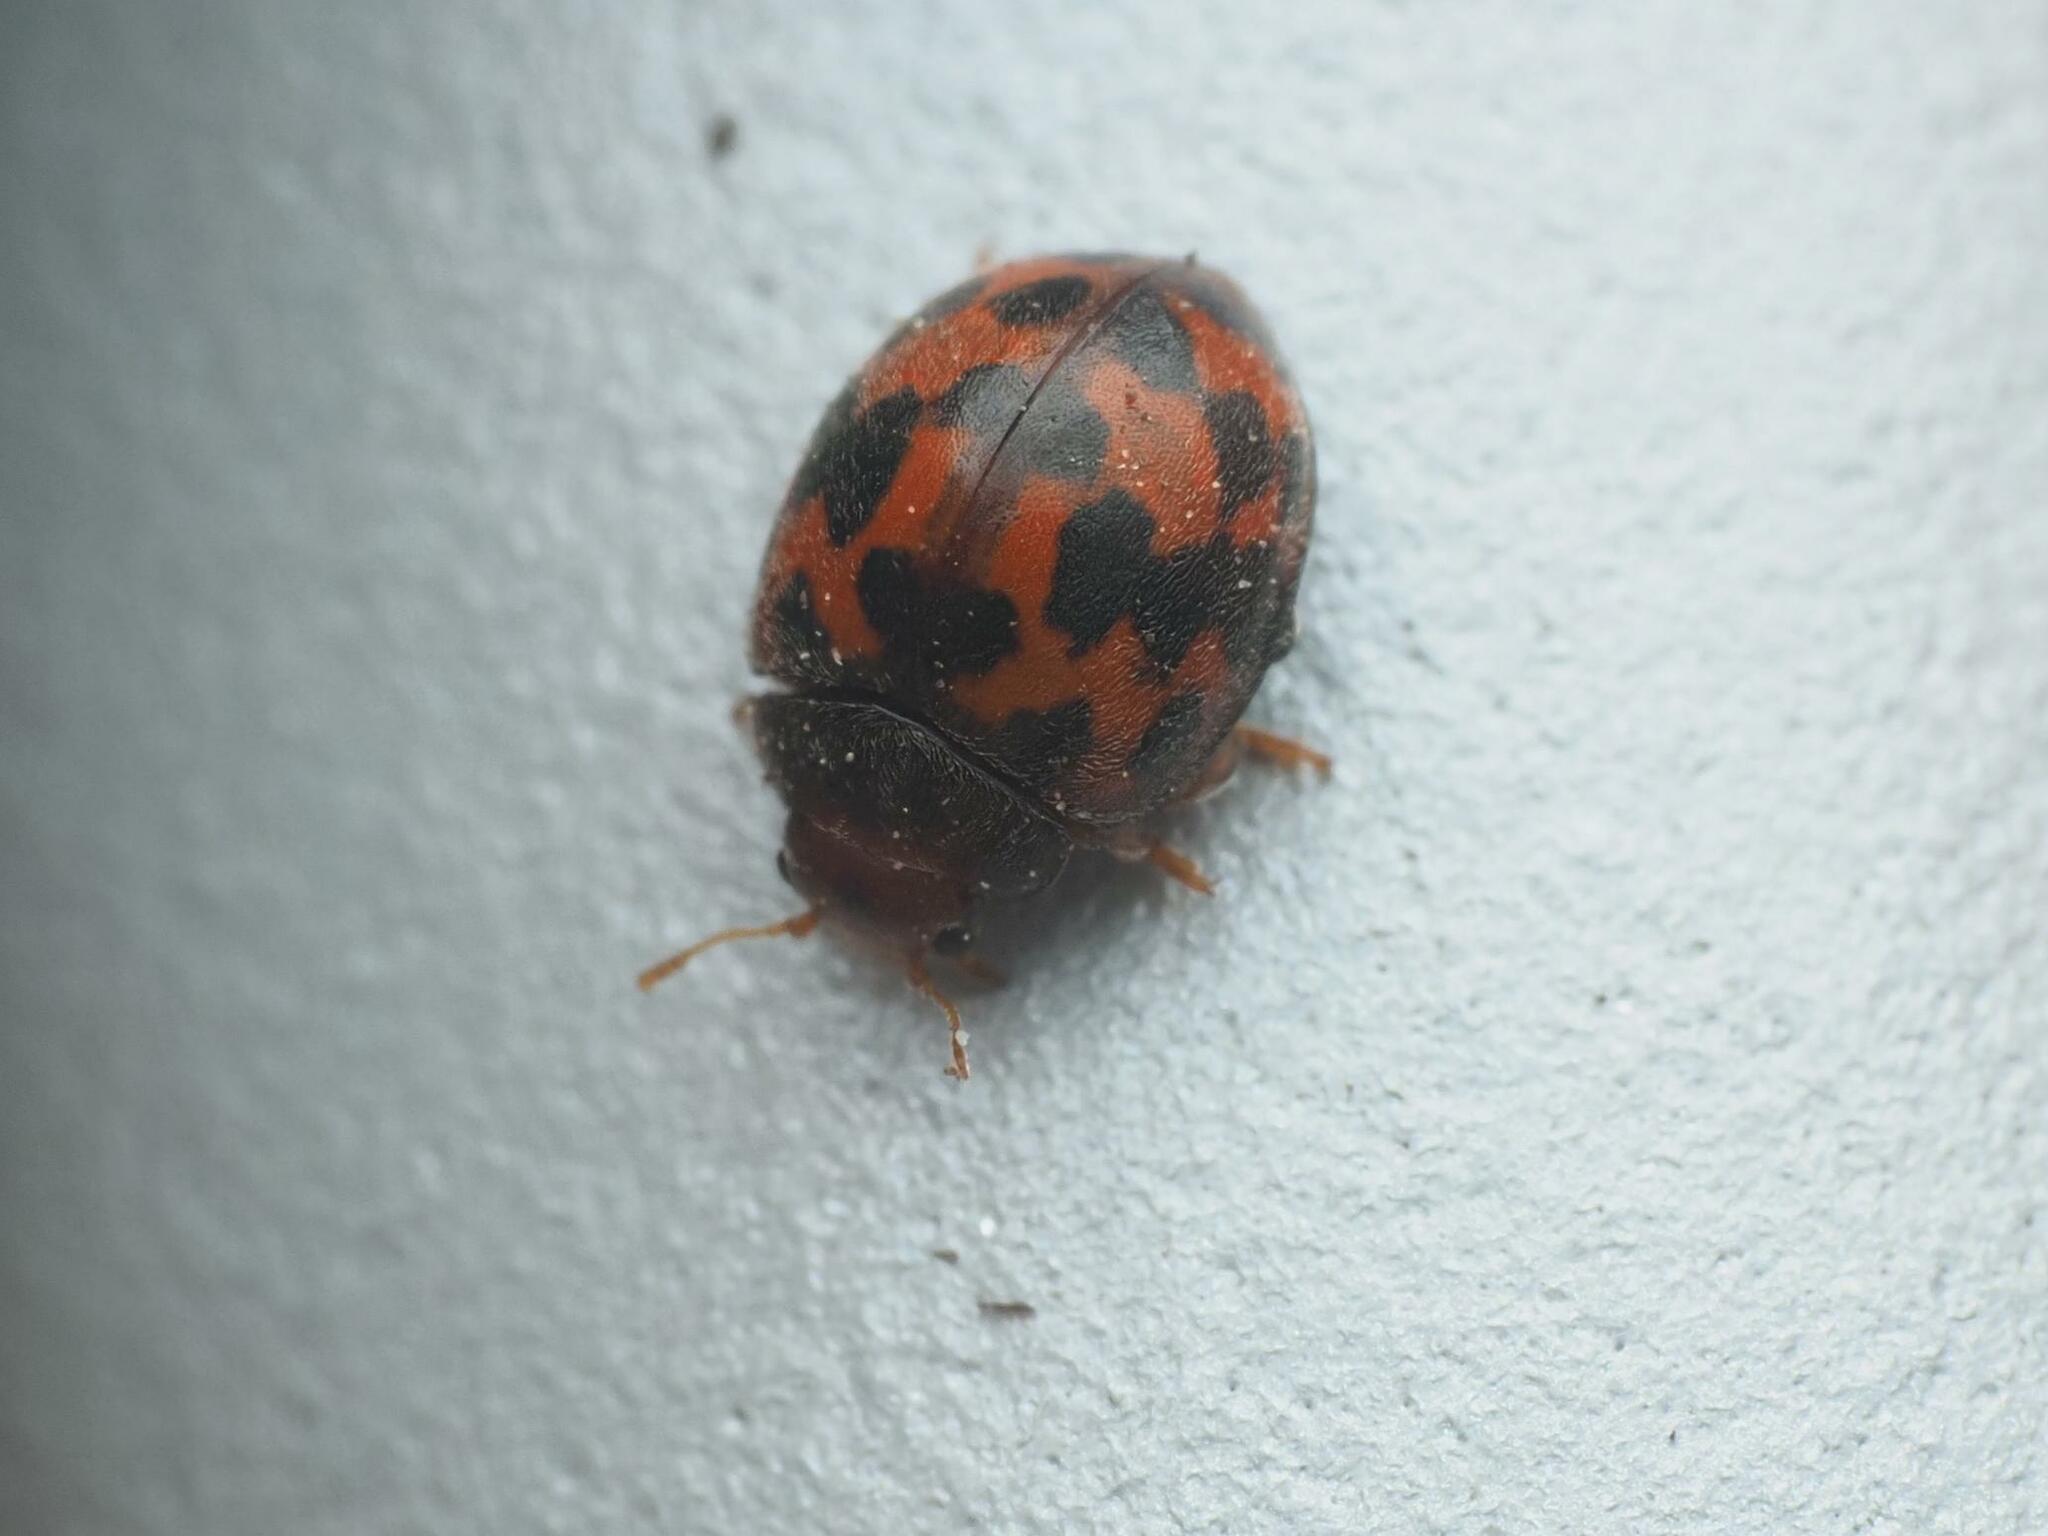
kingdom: Animalia
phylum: Arthropoda
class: Insecta
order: Coleoptera
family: Coccinellidae
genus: Subcoccinella
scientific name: Subcoccinella vigintiquatuorpunctata
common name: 24-spot ladybird
